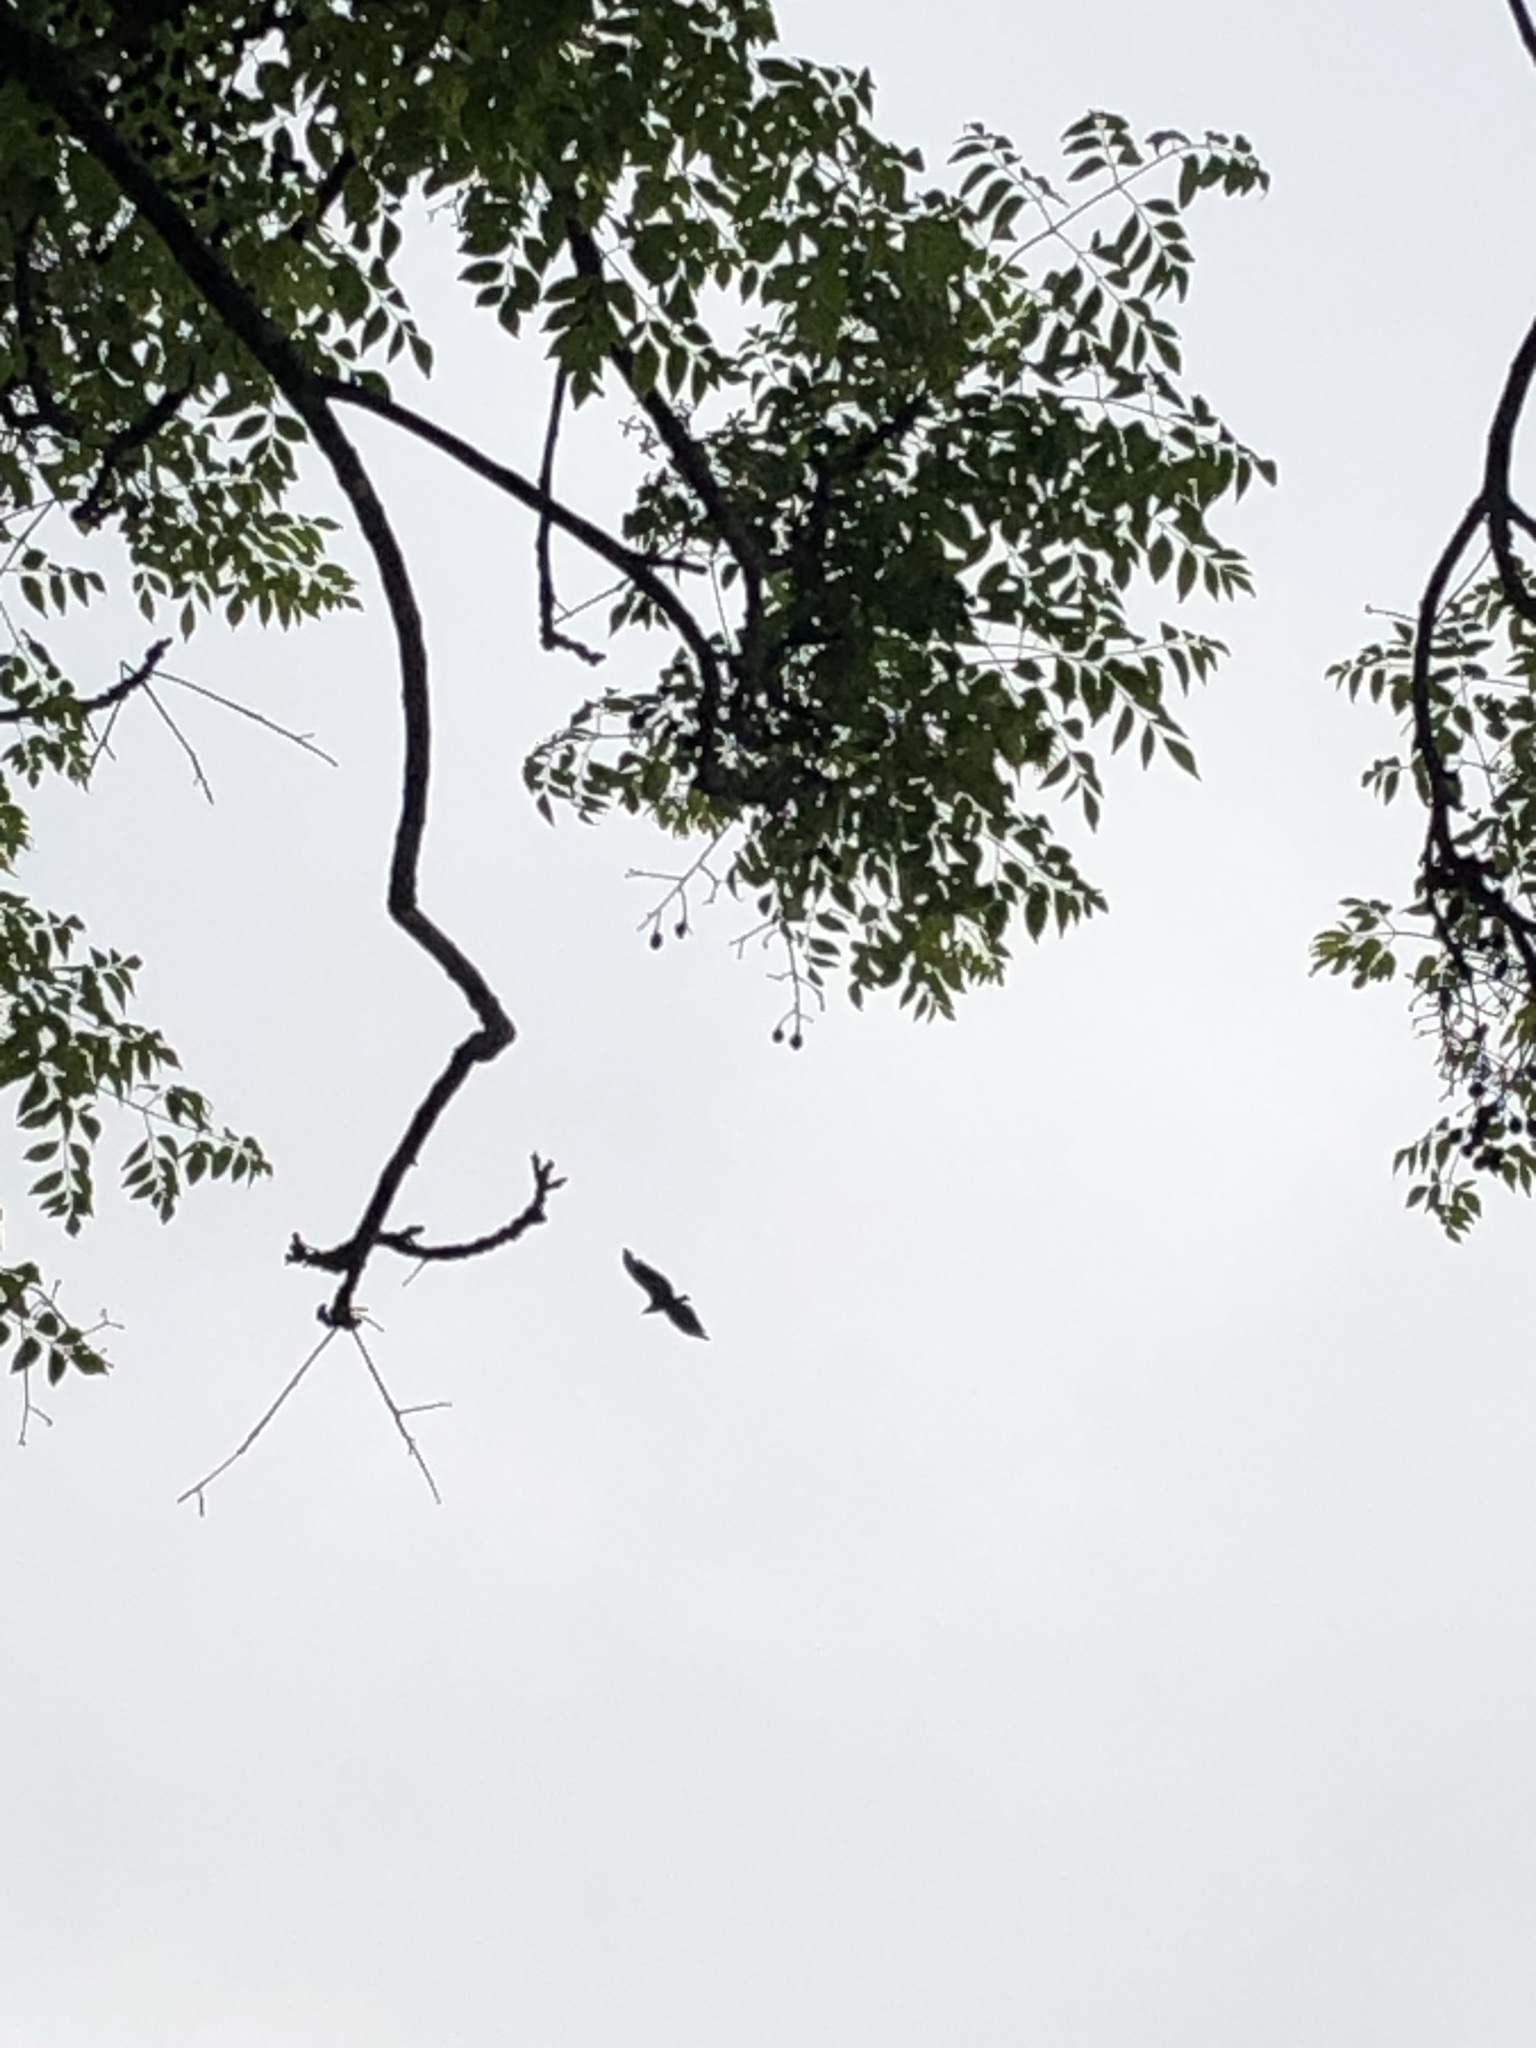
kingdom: Animalia
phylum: Chordata
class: Aves
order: Accipitriformes
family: Accipitridae
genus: Parabuteo
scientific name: Parabuteo unicinctus
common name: Harris's hawk
